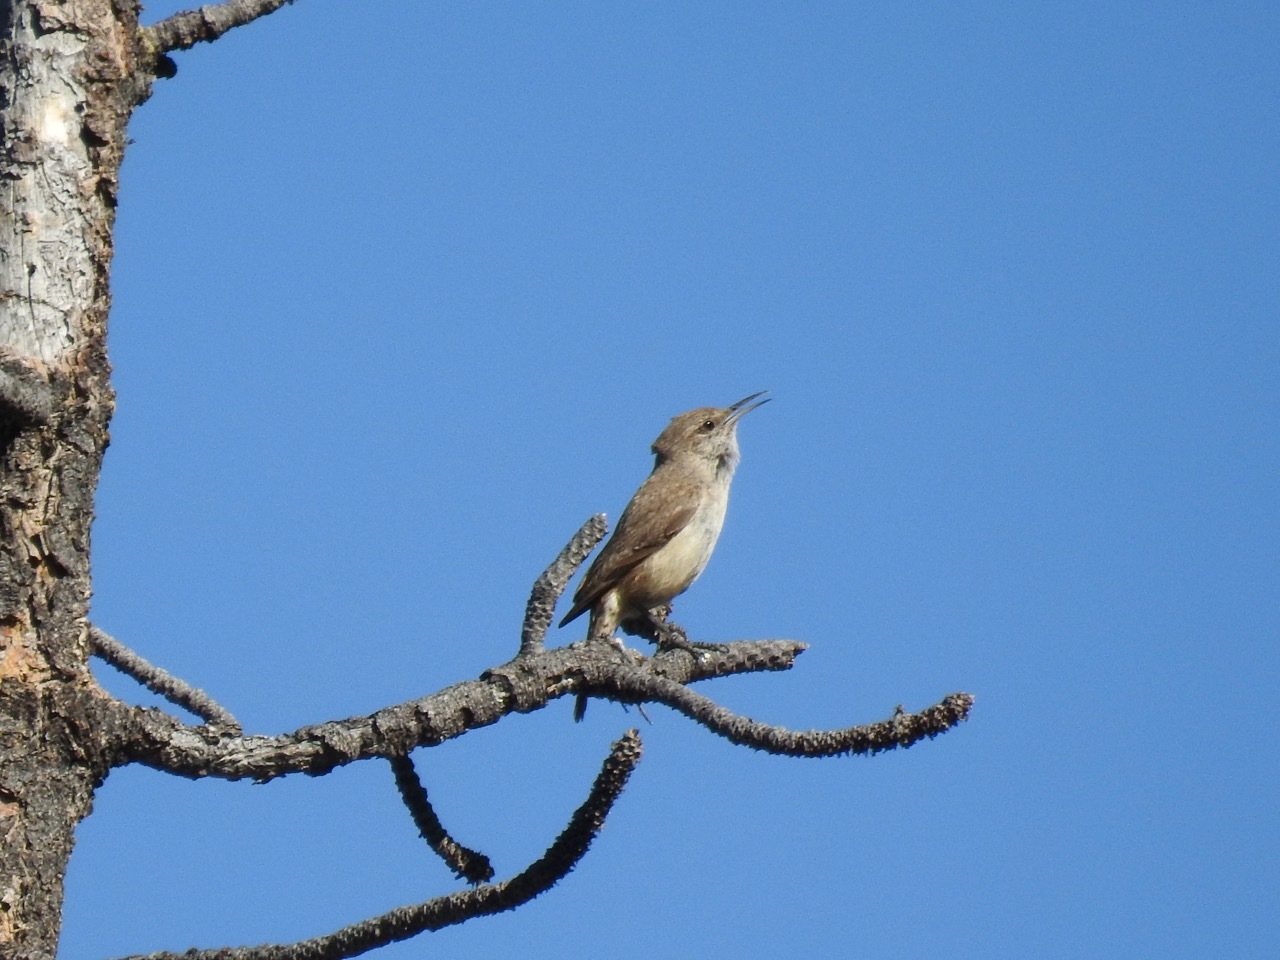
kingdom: Animalia
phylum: Chordata
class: Aves
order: Passeriformes
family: Troglodytidae
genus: Salpinctes
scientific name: Salpinctes obsoletus
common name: Rock wren
